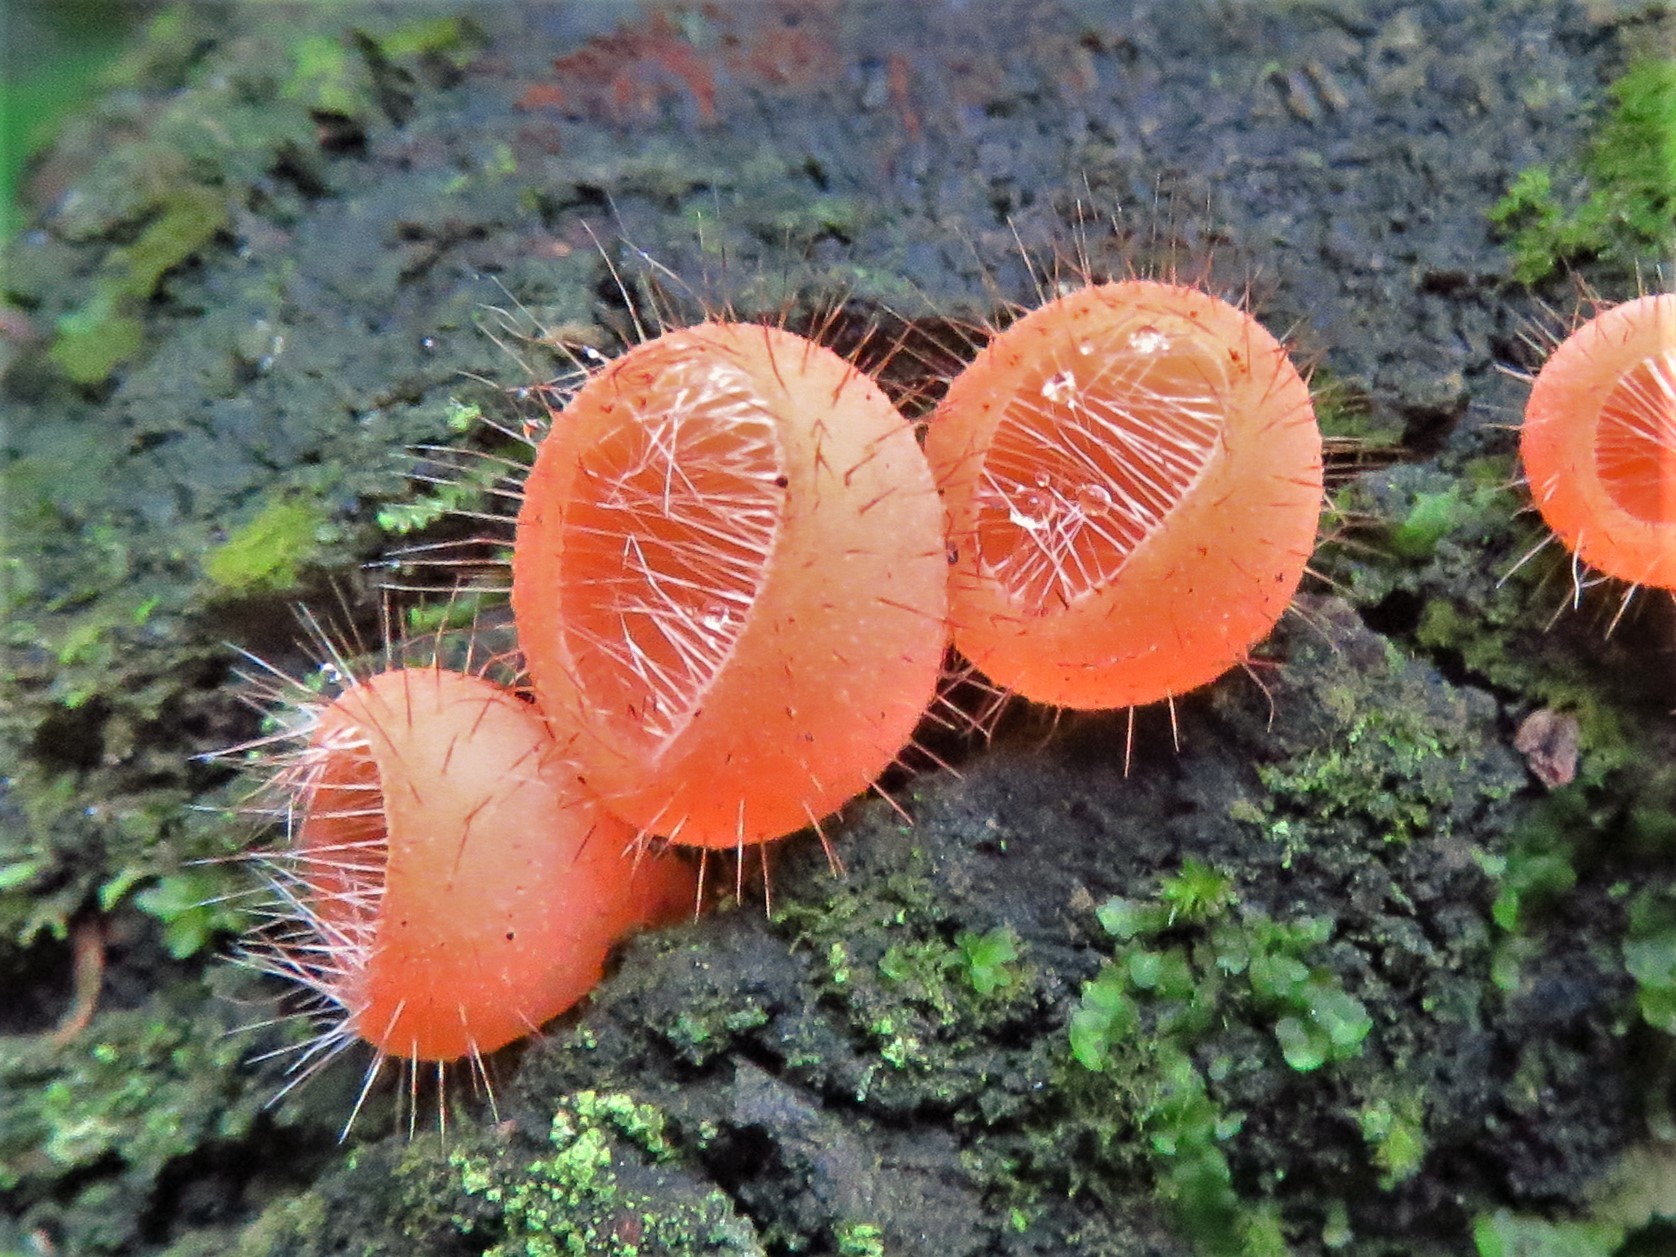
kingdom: Fungi
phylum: Ascomycota
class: Pezizomycetes
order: Pezizales
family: Sarcoscyphaceae
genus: Cookeina
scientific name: Cookeina tricholoma
